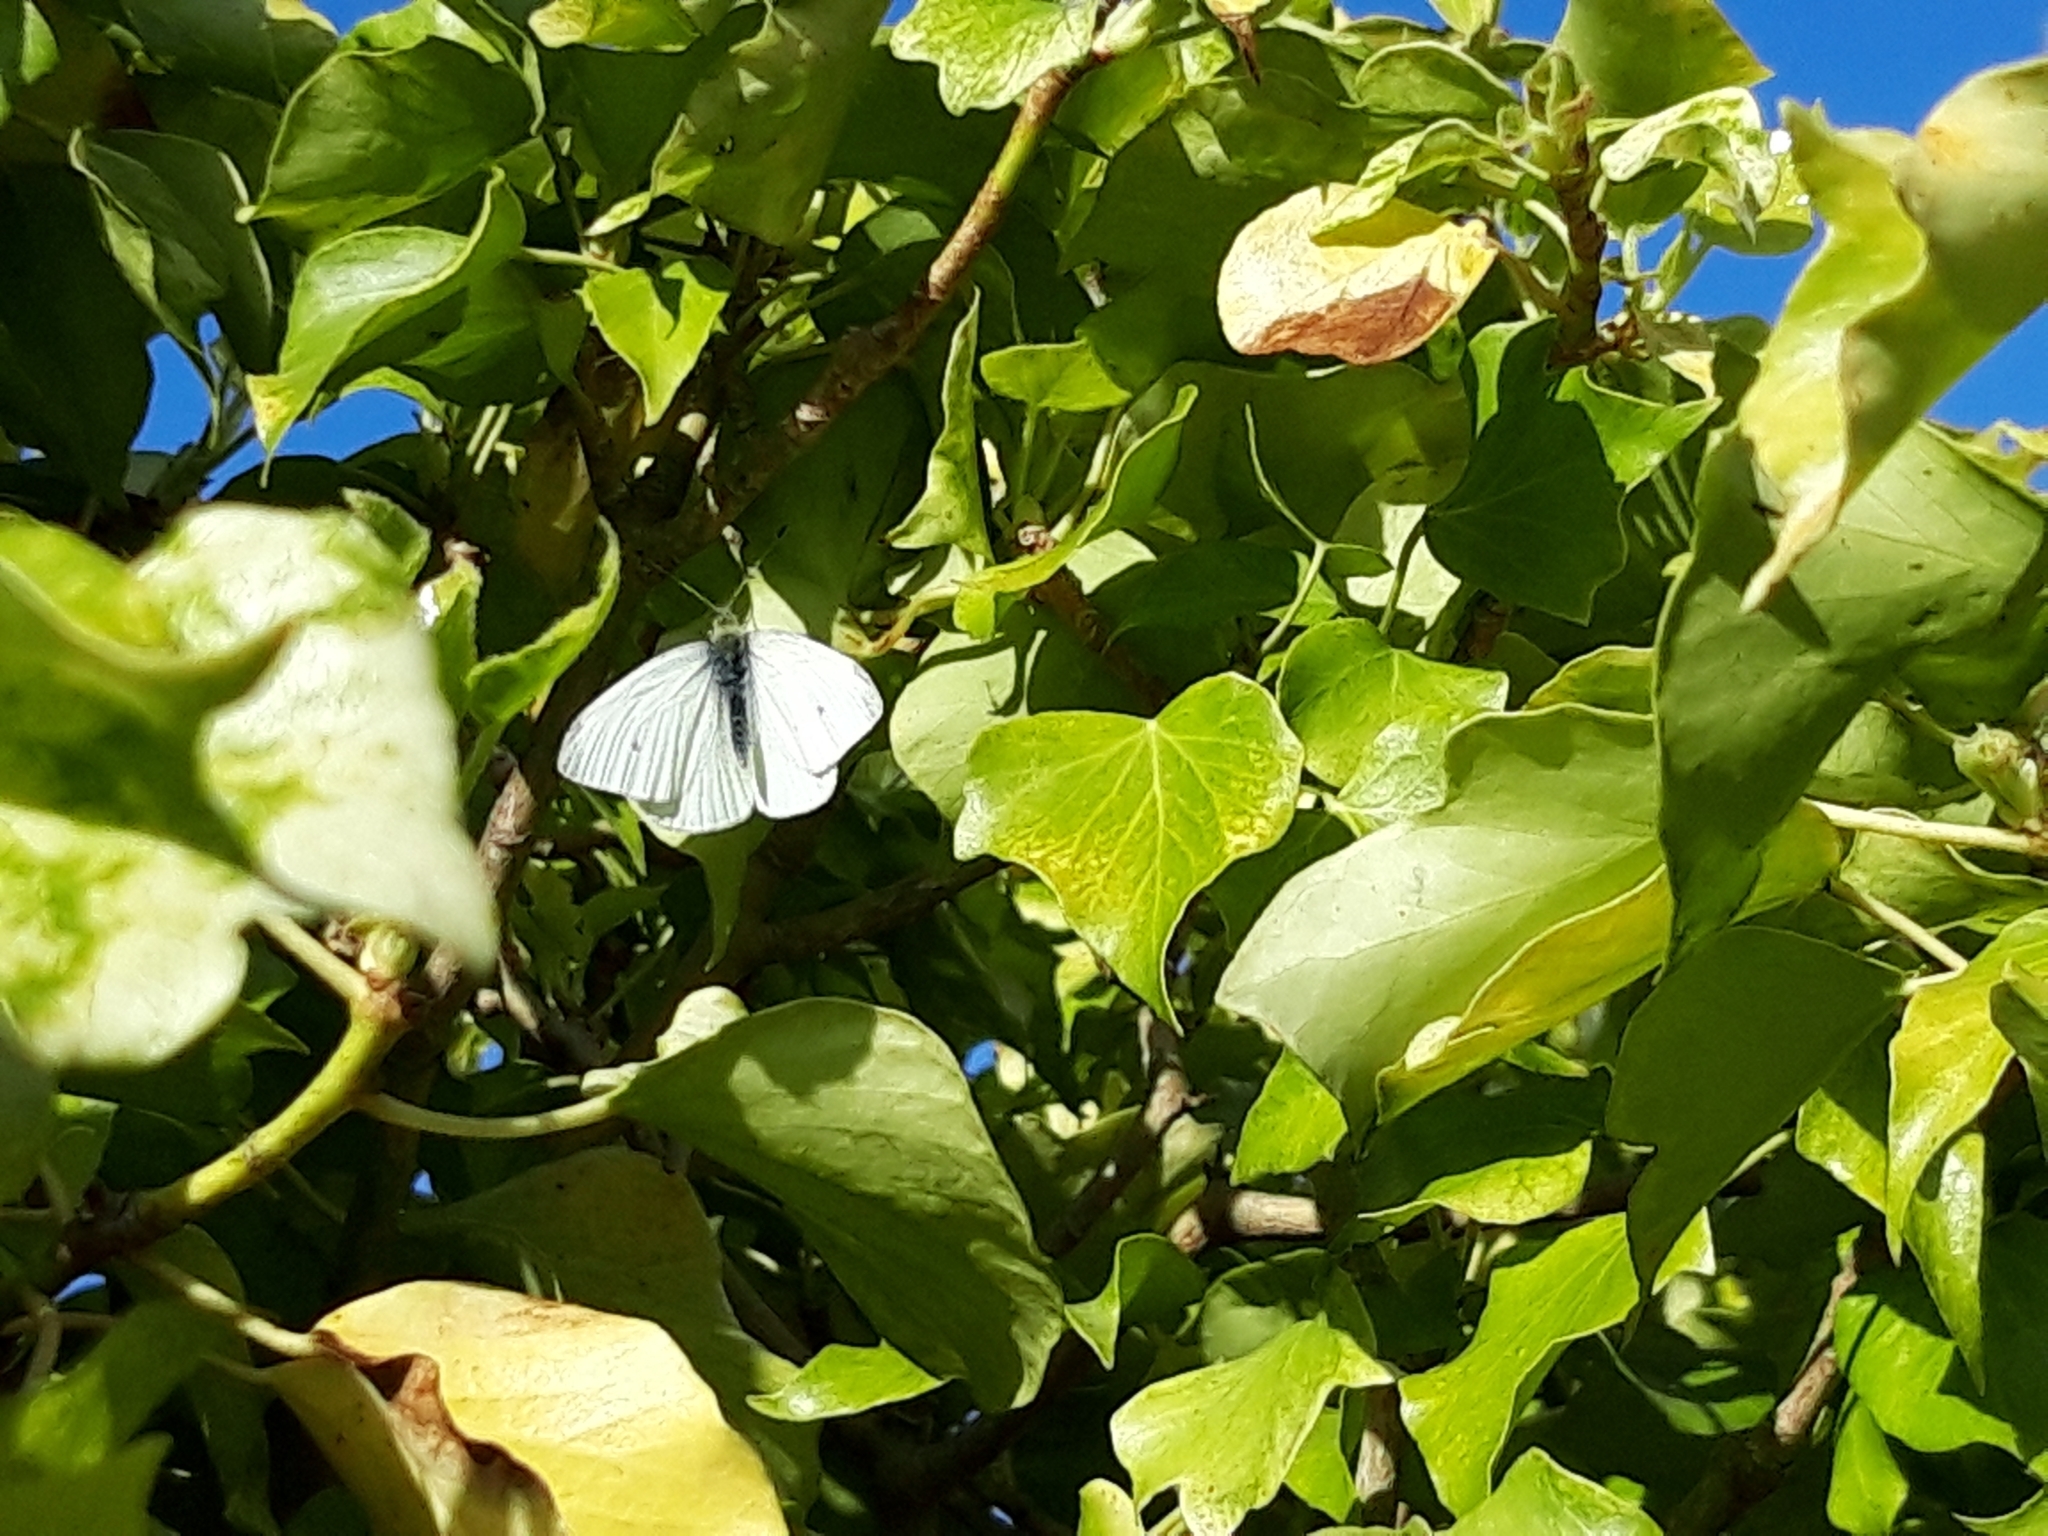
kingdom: Animalia
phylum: Arthropoda
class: Insecta
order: Lepidoptera
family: Pieridae
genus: Pieris
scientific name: Pieris rapae
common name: Small white
